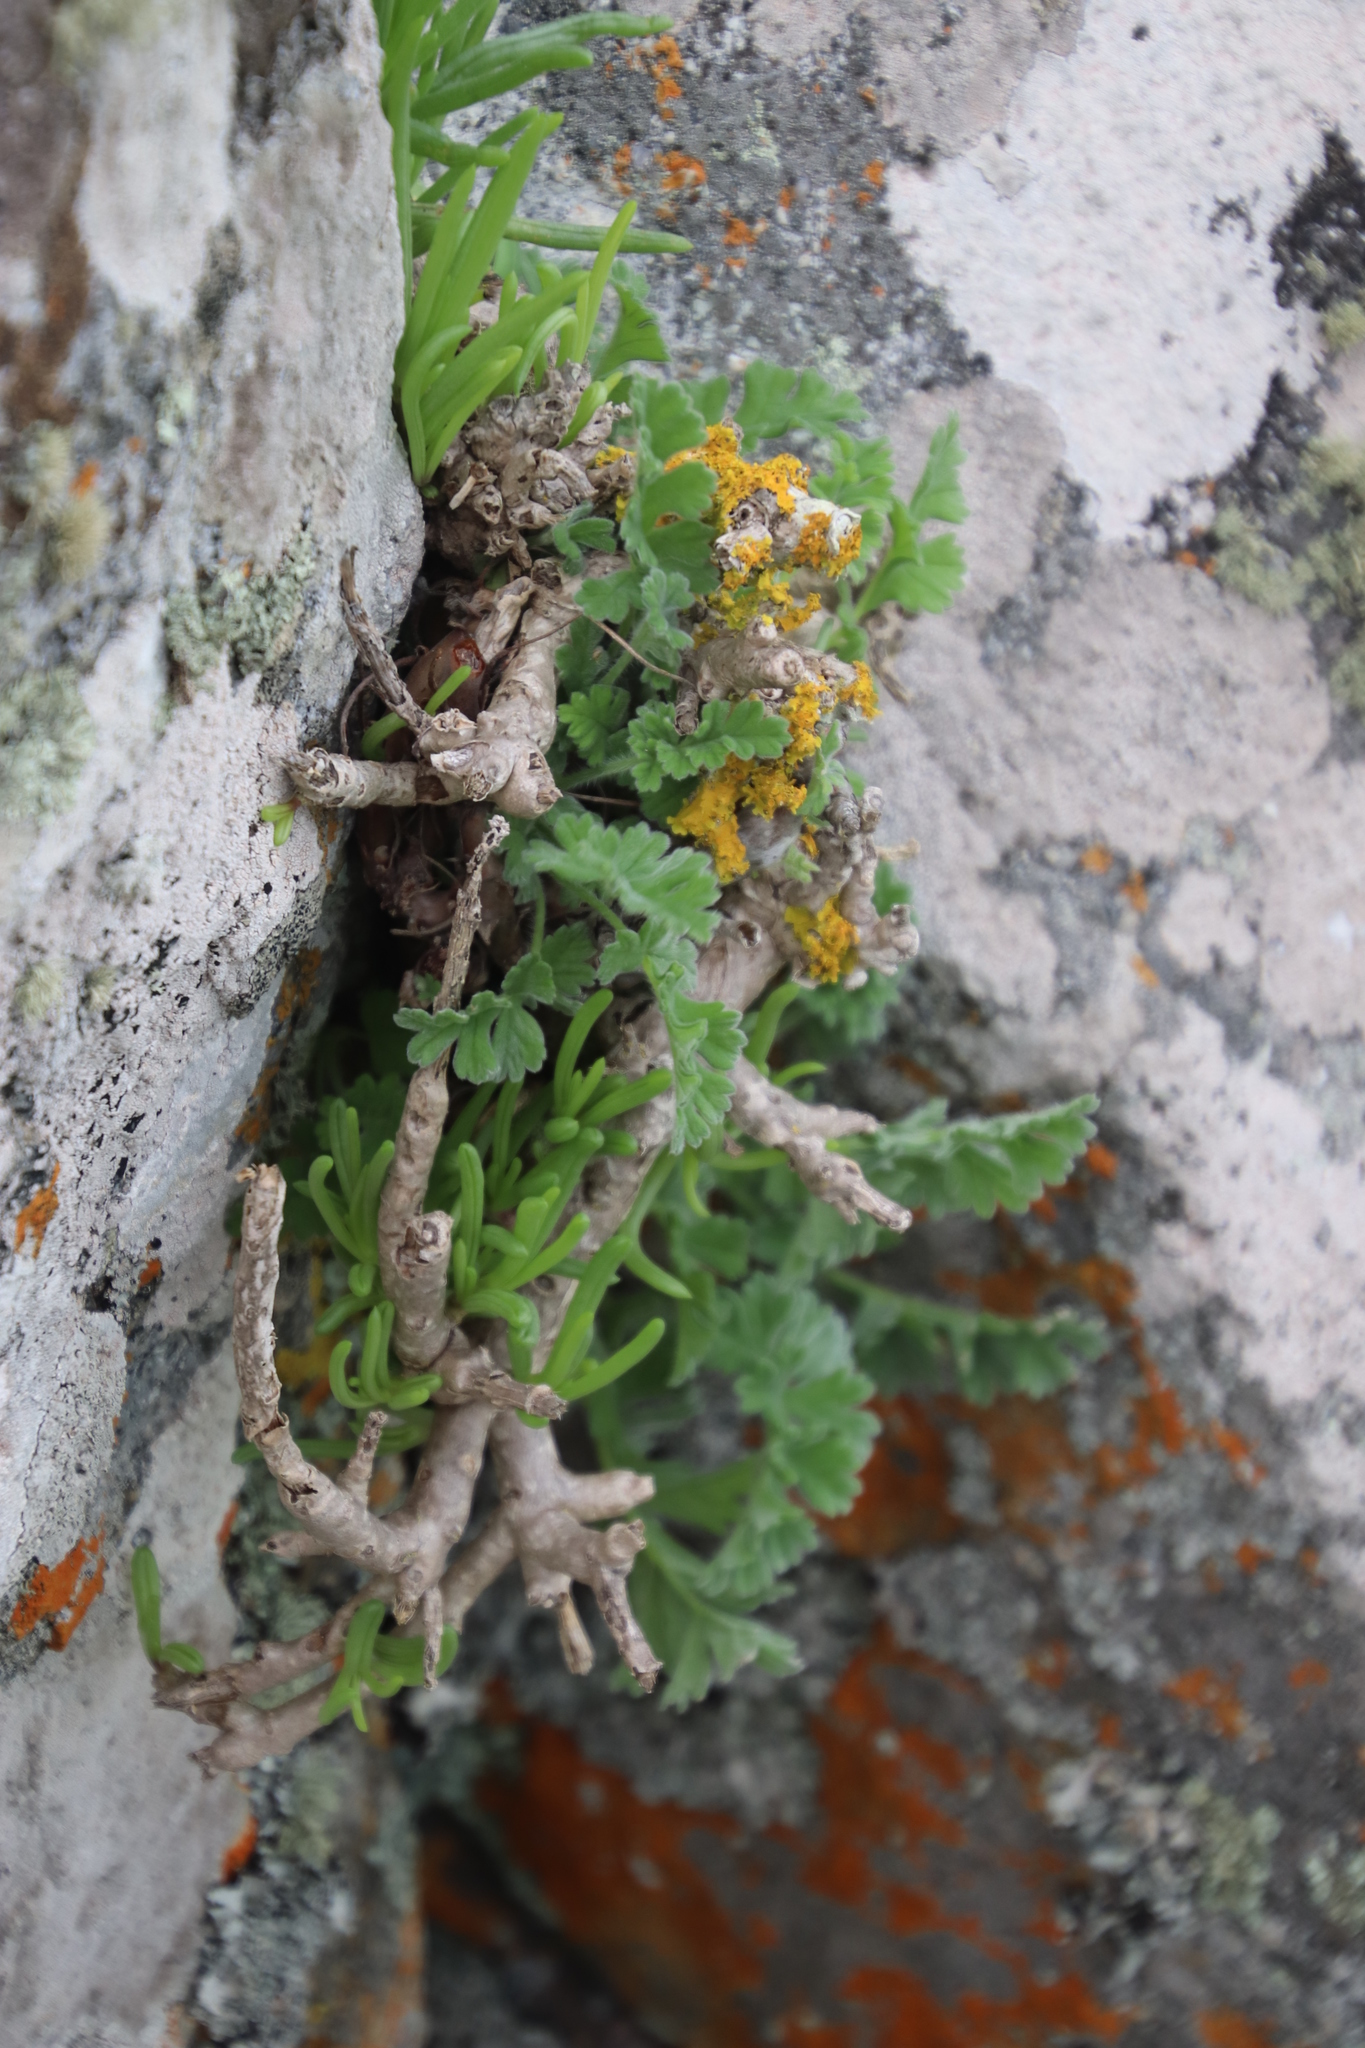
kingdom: Plantae
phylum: Tracheophyta
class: Magnoliopsida
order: Geraniales
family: Geraniaceae
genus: Pelargonium
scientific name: Pelargonium fulgidum
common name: Celandine-leaf pelargonium
